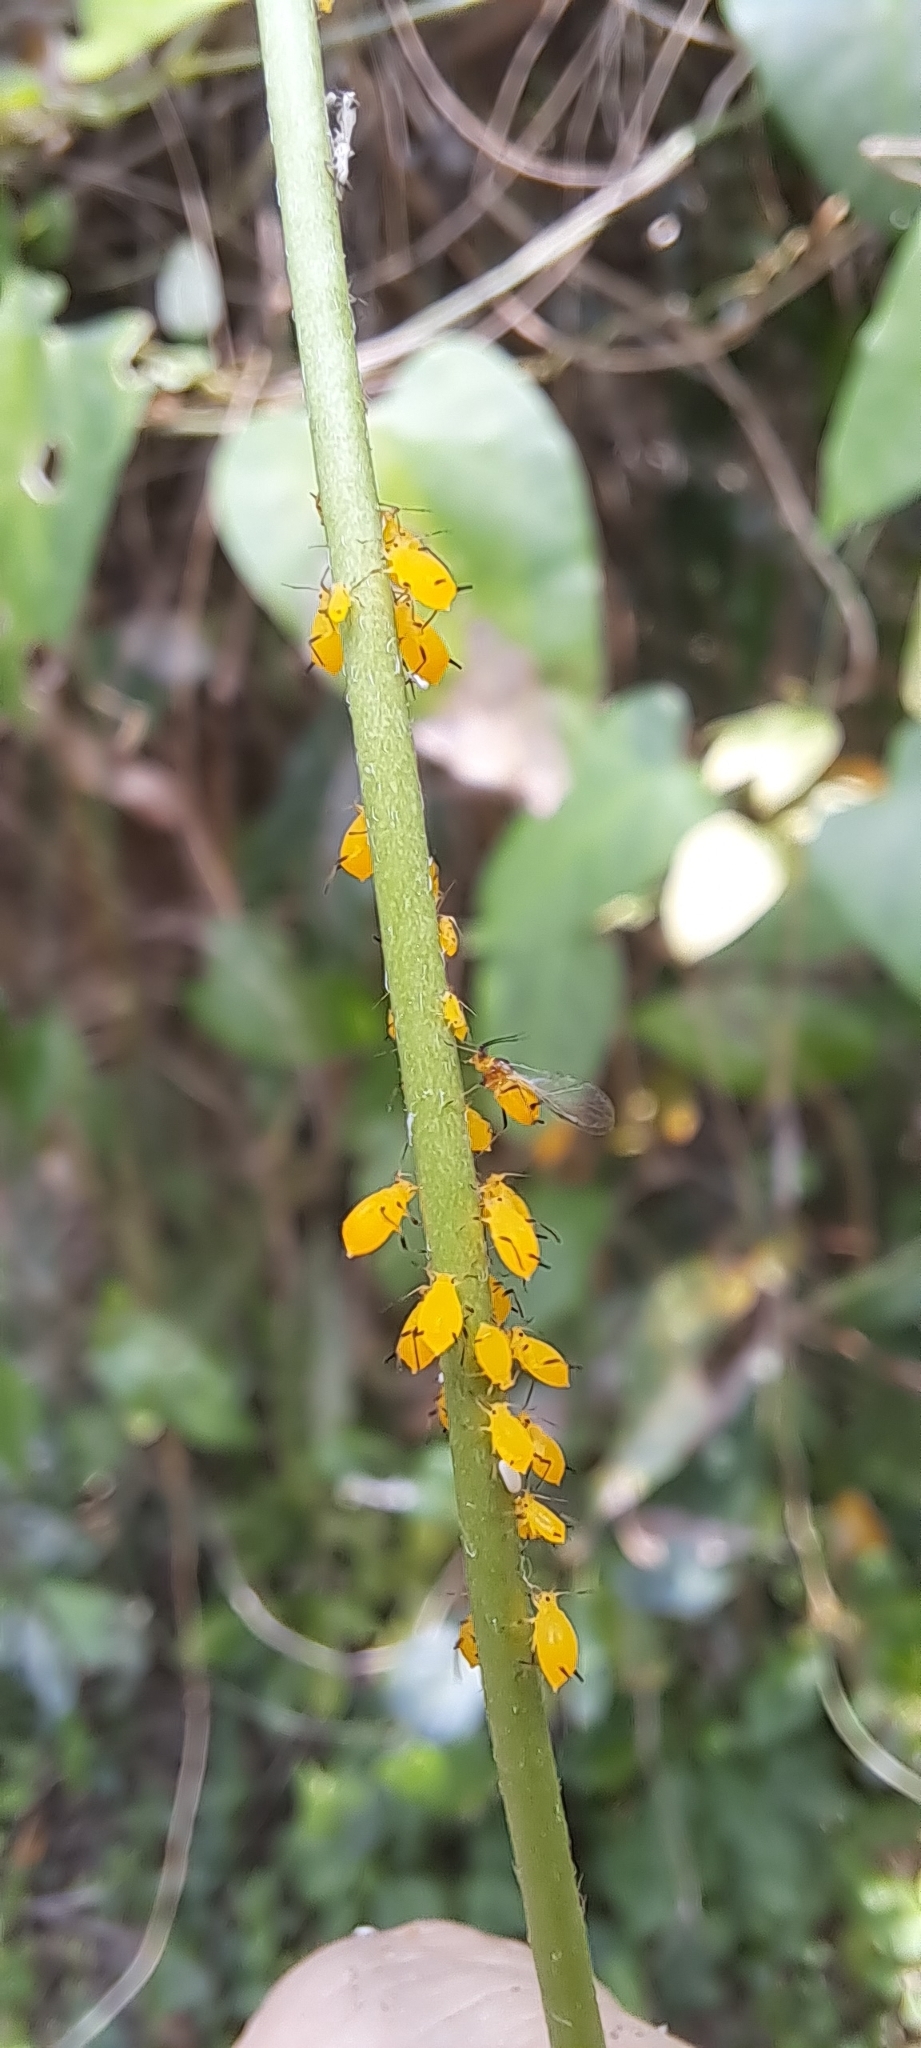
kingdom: Animalia
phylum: Arthropoda
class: Insecta
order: Hemiptera
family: Aphididae
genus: Aphis
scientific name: Aphis nerii
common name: Oleander aphid
